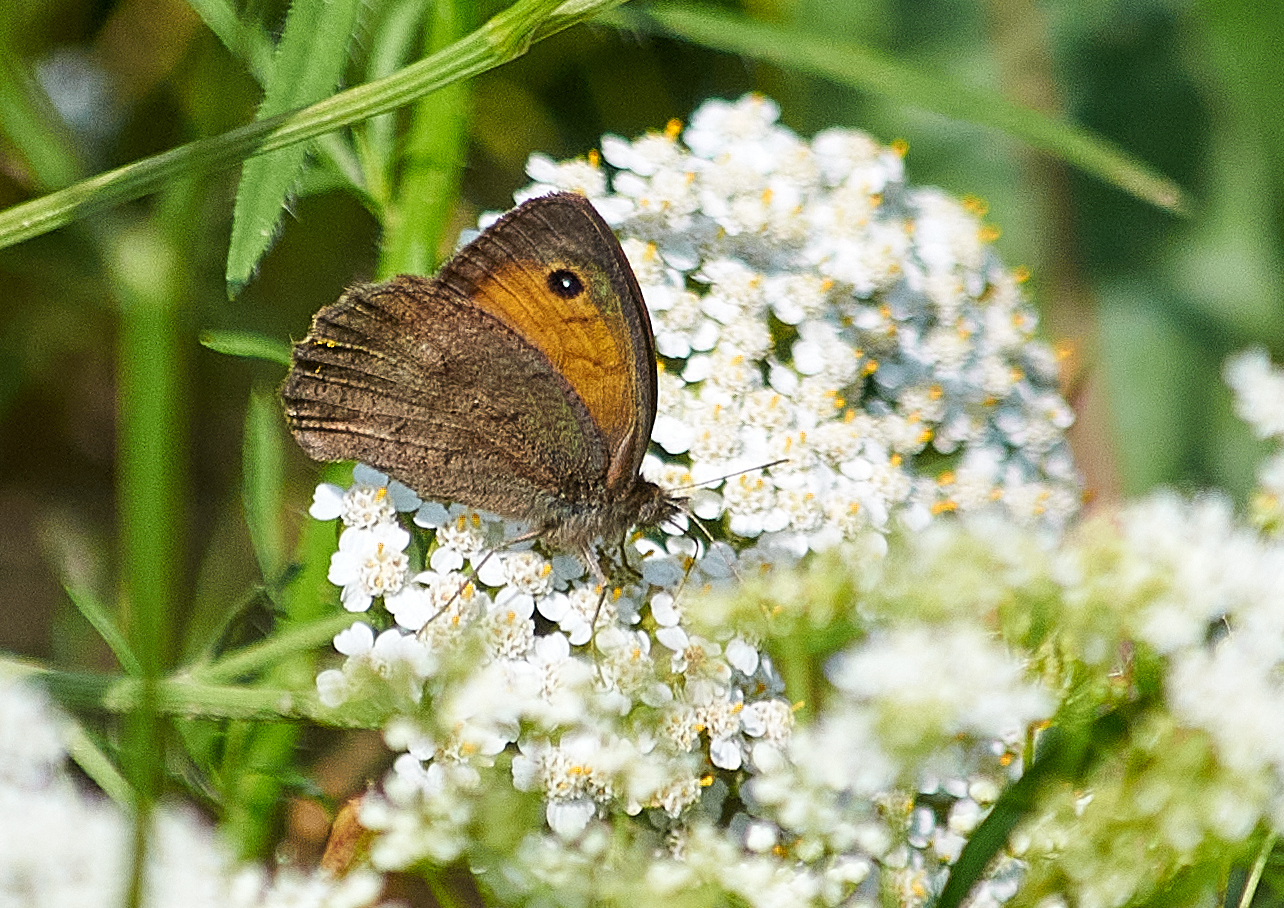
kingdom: Animalia
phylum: Arthropoda
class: Insecta
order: Lepidoptera
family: Nymphalidae
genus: Hyponephele
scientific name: Hyponephele lycaon
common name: Dusky meadow brown
